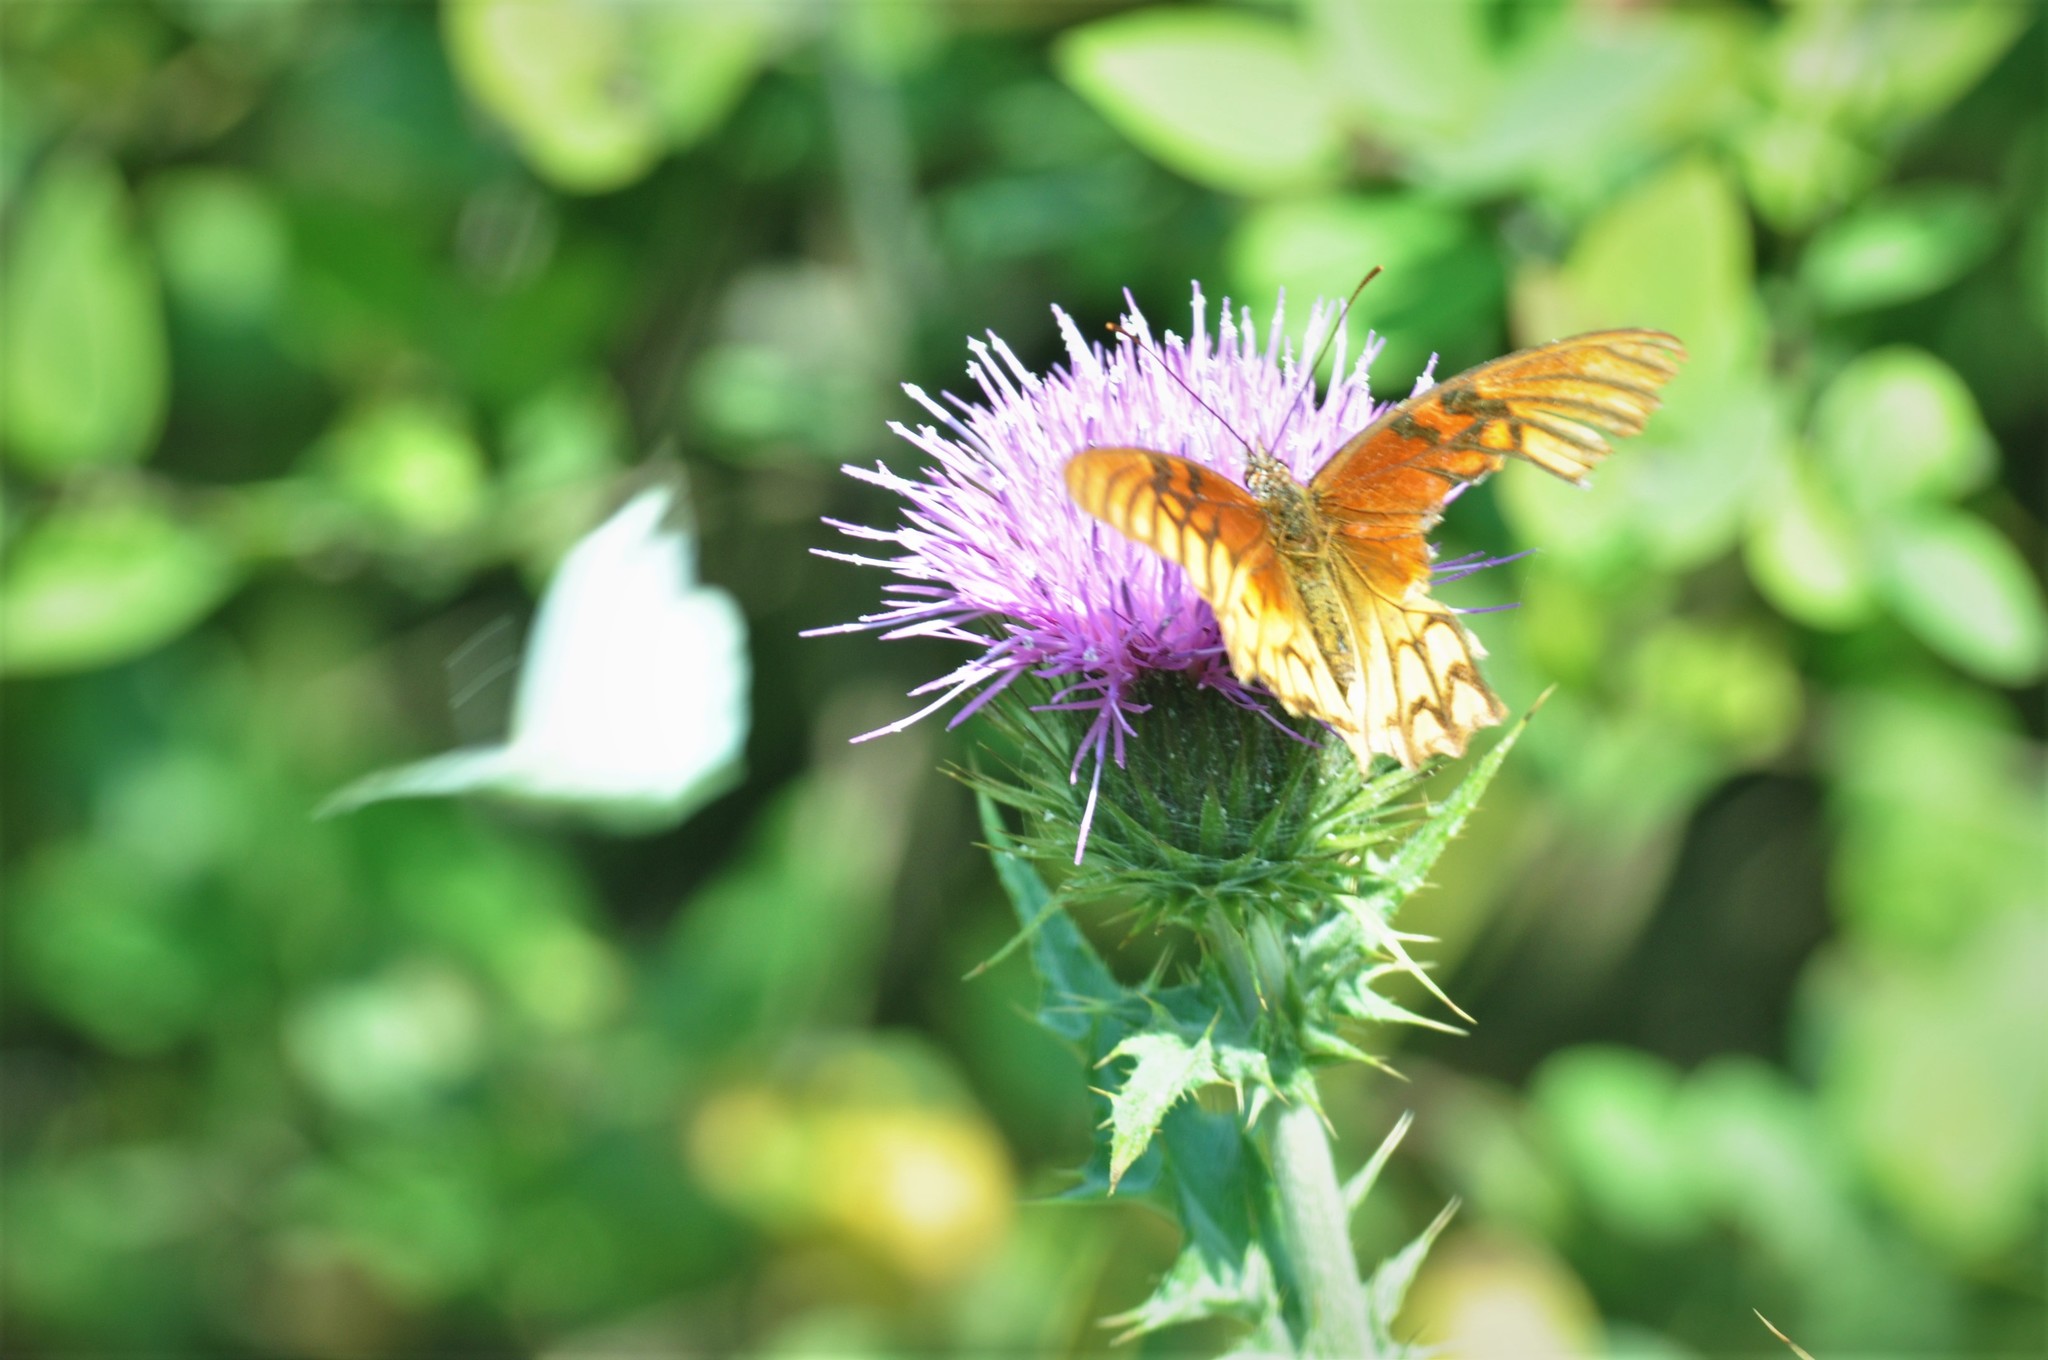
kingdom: Animalia
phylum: Arthropoda
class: Insecta
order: Lepidoptera
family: Nymphalidae
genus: Dione
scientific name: Dione moneta
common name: Mexican silverspot
